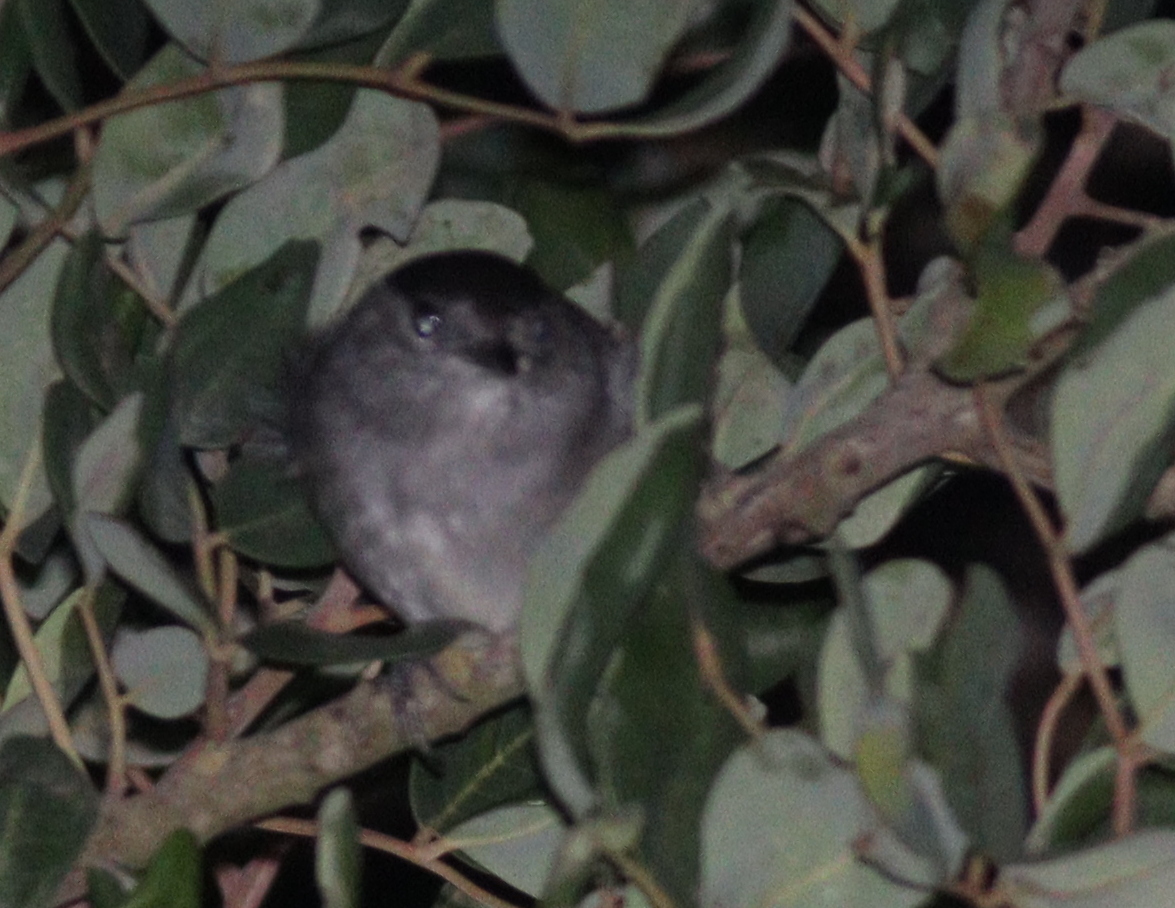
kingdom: Animalia
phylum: Chordata
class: Aves
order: Passeriformes
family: Sylviidae
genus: Sylvia
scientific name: Sylvia atricapilla
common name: Eurasian blackcap
